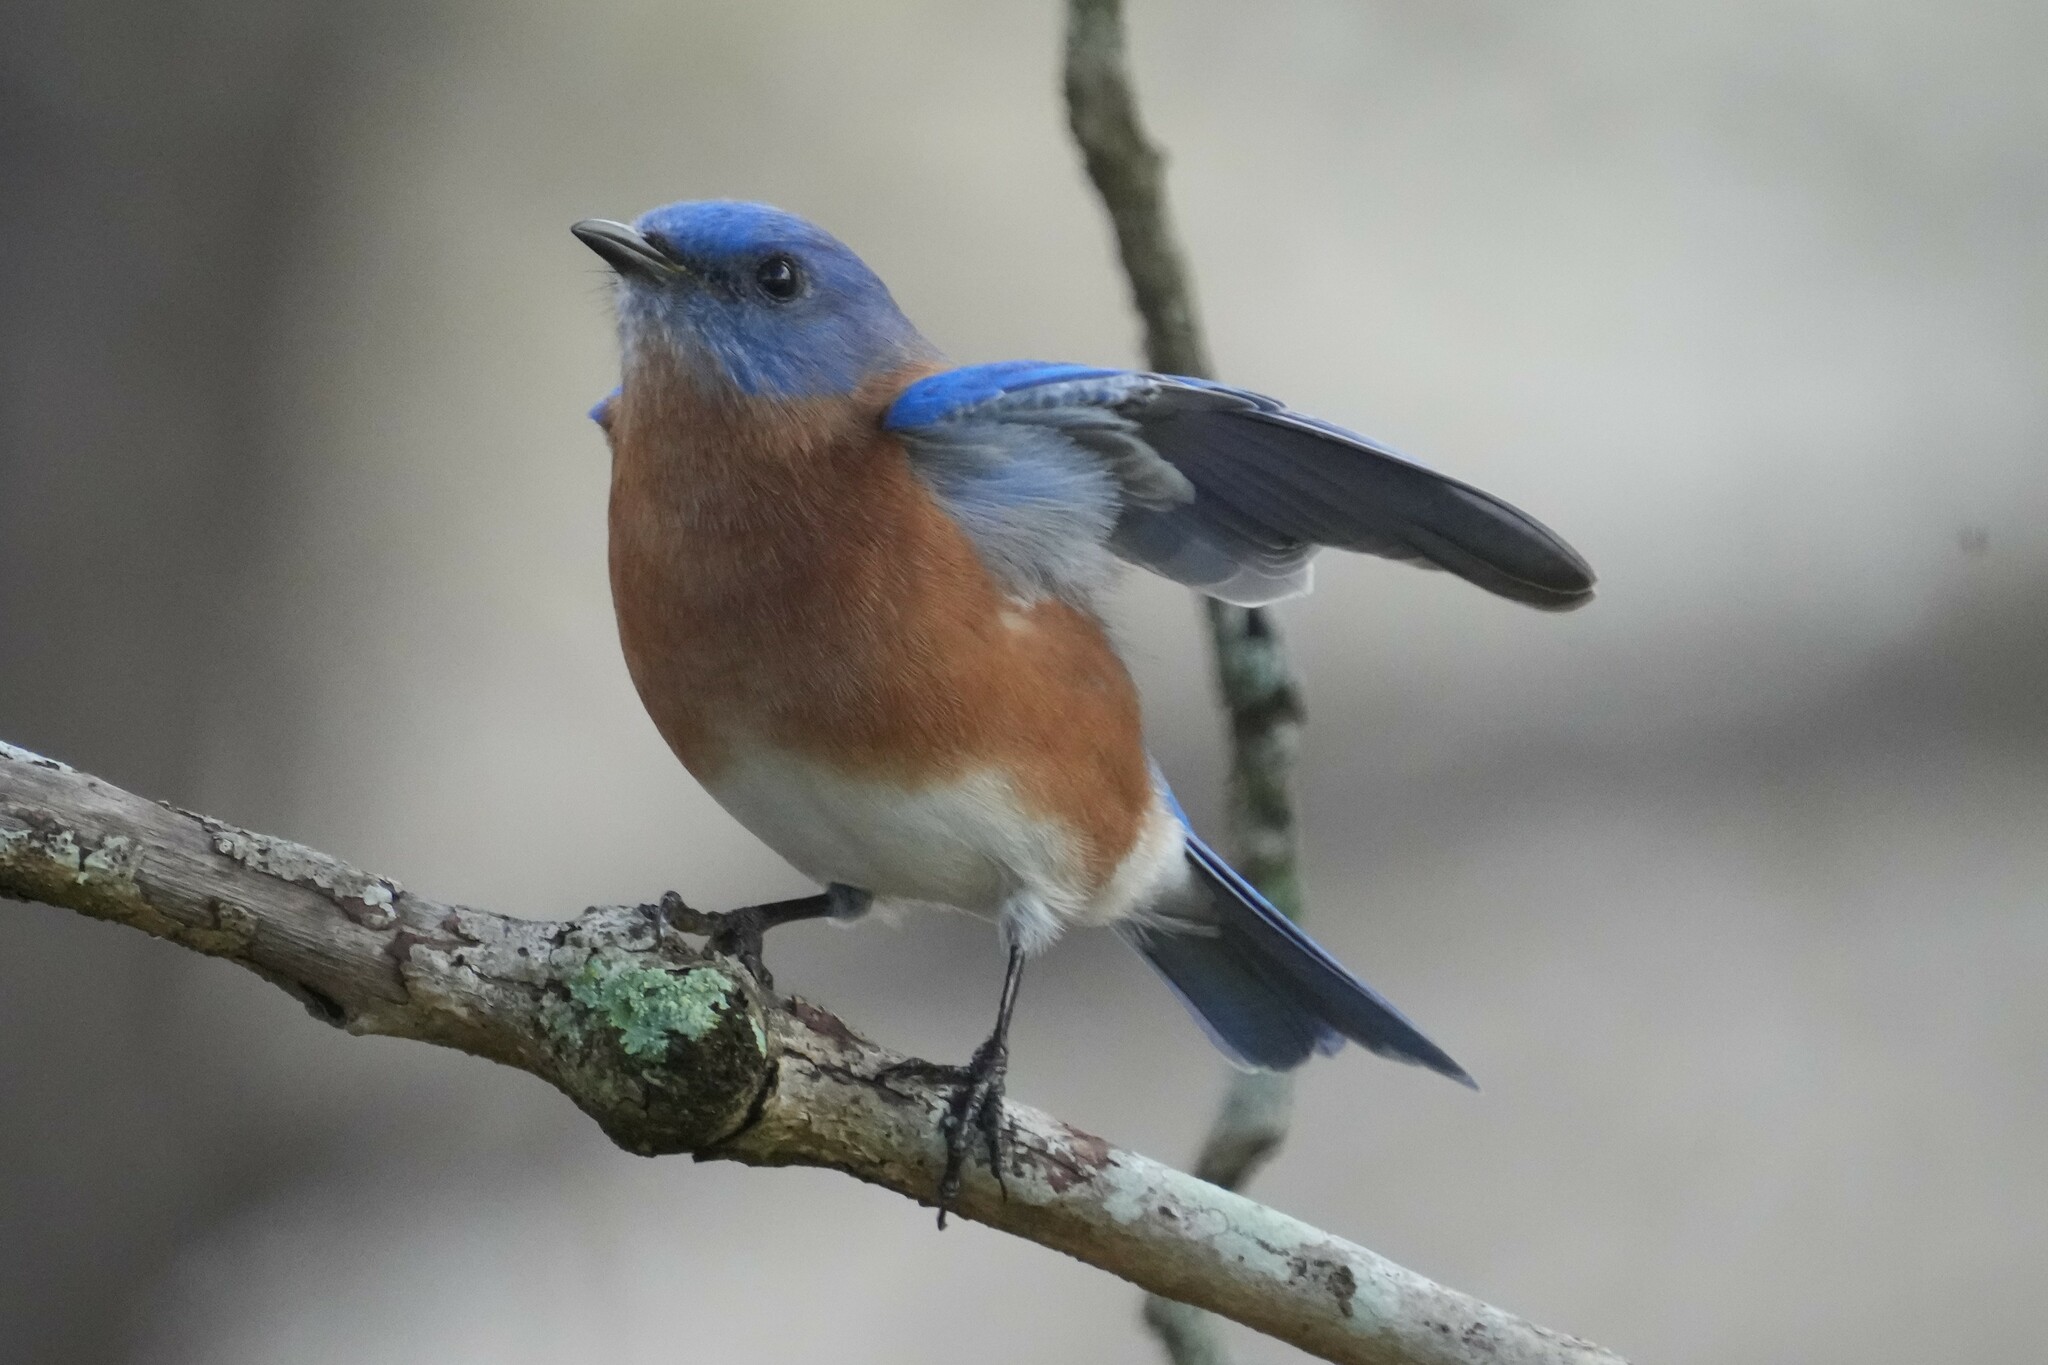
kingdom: Animalia
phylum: Chordata
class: Aves
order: Passeriformes
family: Turdidae
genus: Sialia
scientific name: Sialia sialis
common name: Eastern bluebird
